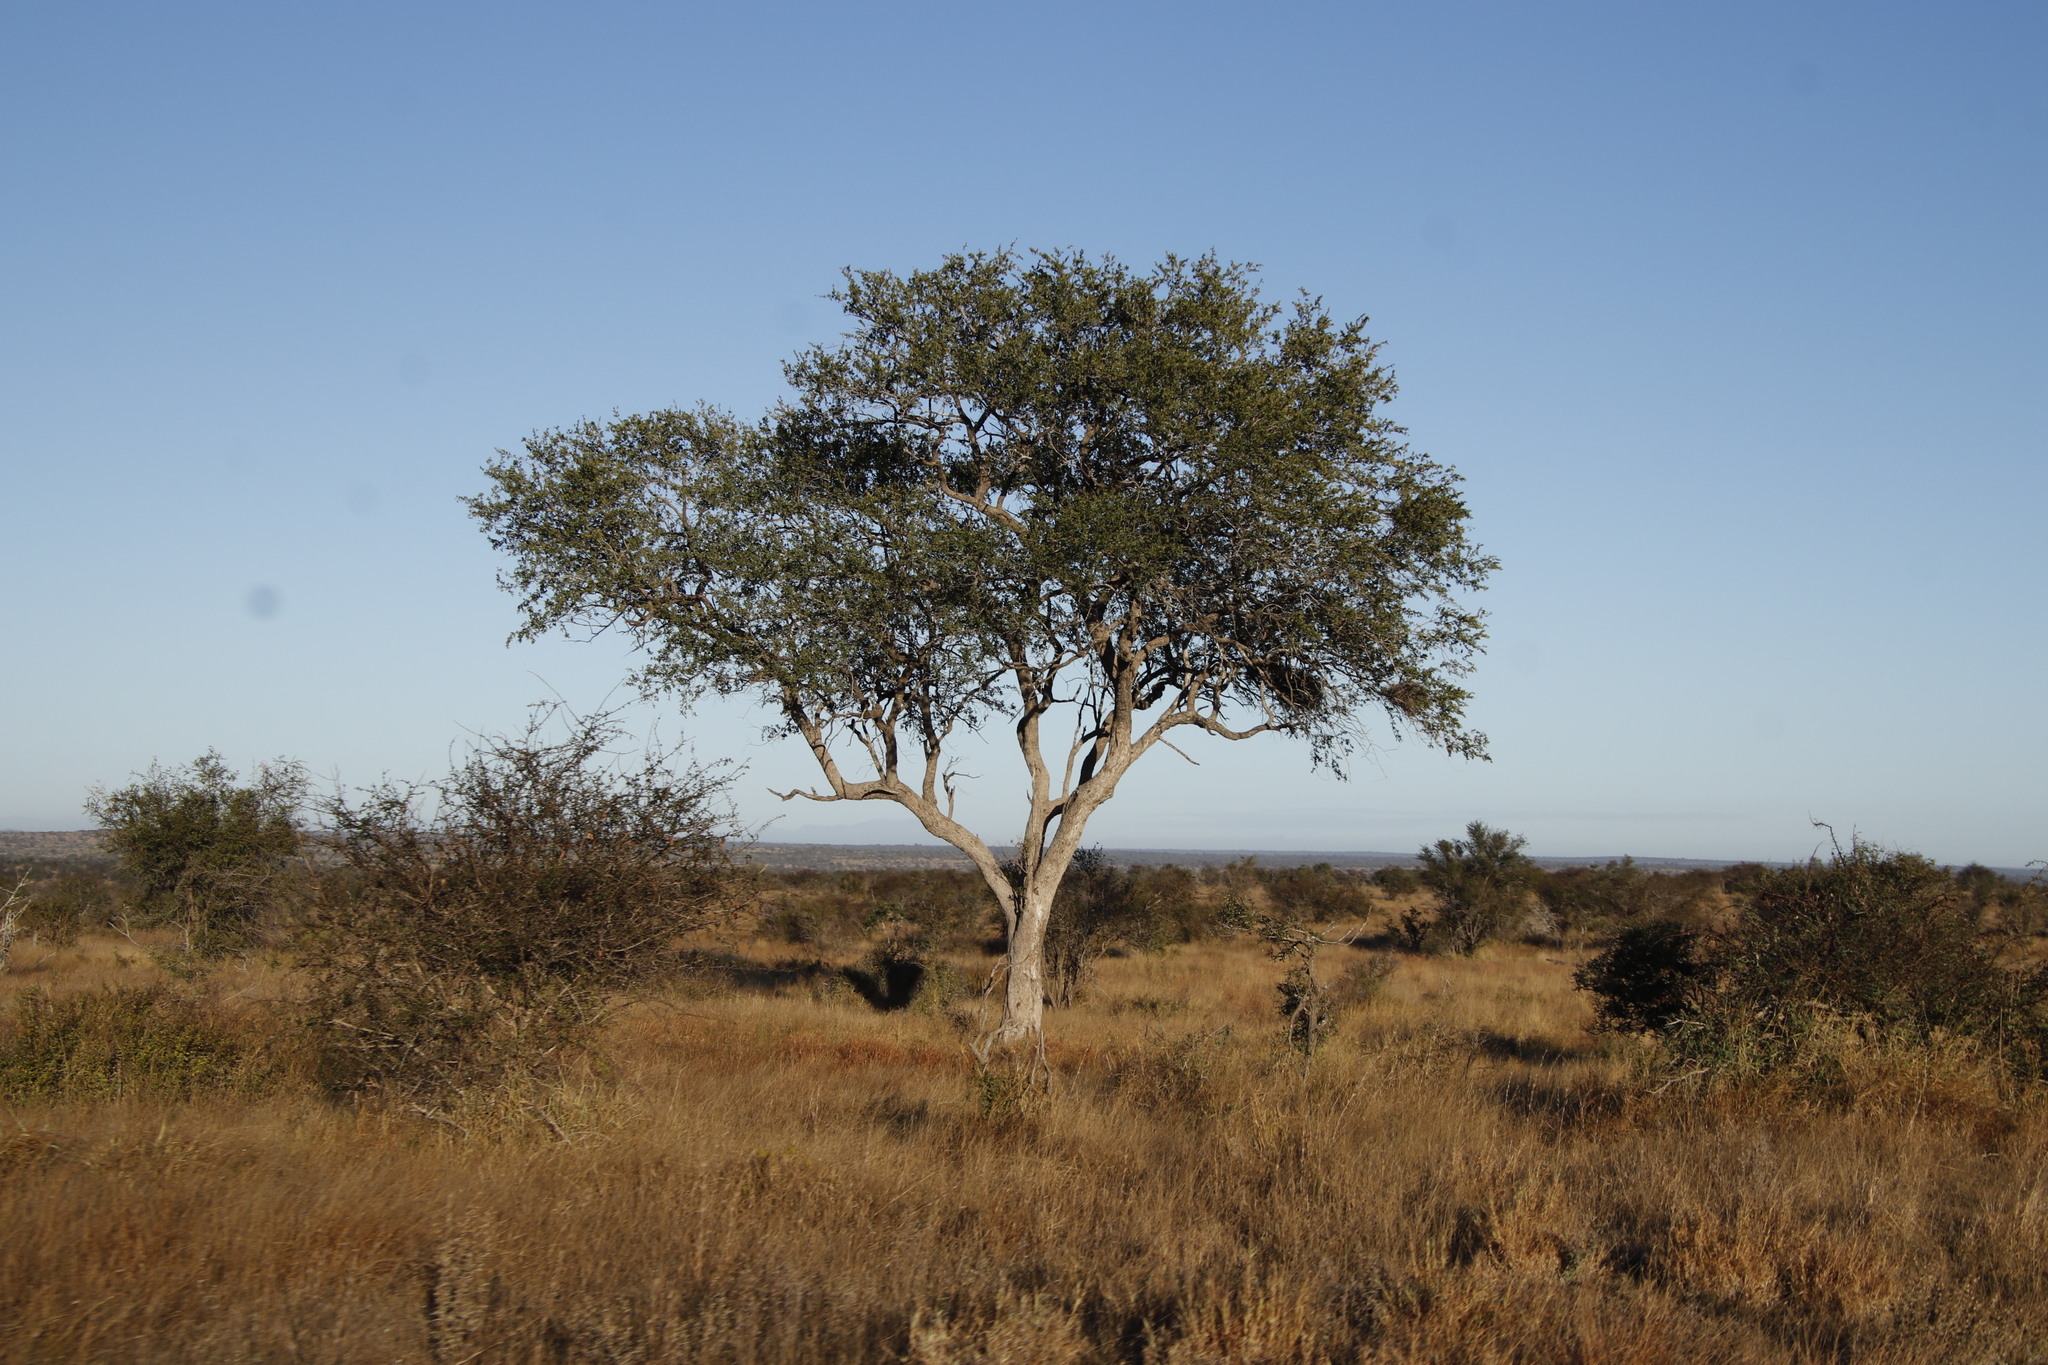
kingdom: Plantae
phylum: Tracheophyta
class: Magnoliopsida
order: Myrtales
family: Combretaceae
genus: Combretum
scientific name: Combretum imberbe
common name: Leadwood
